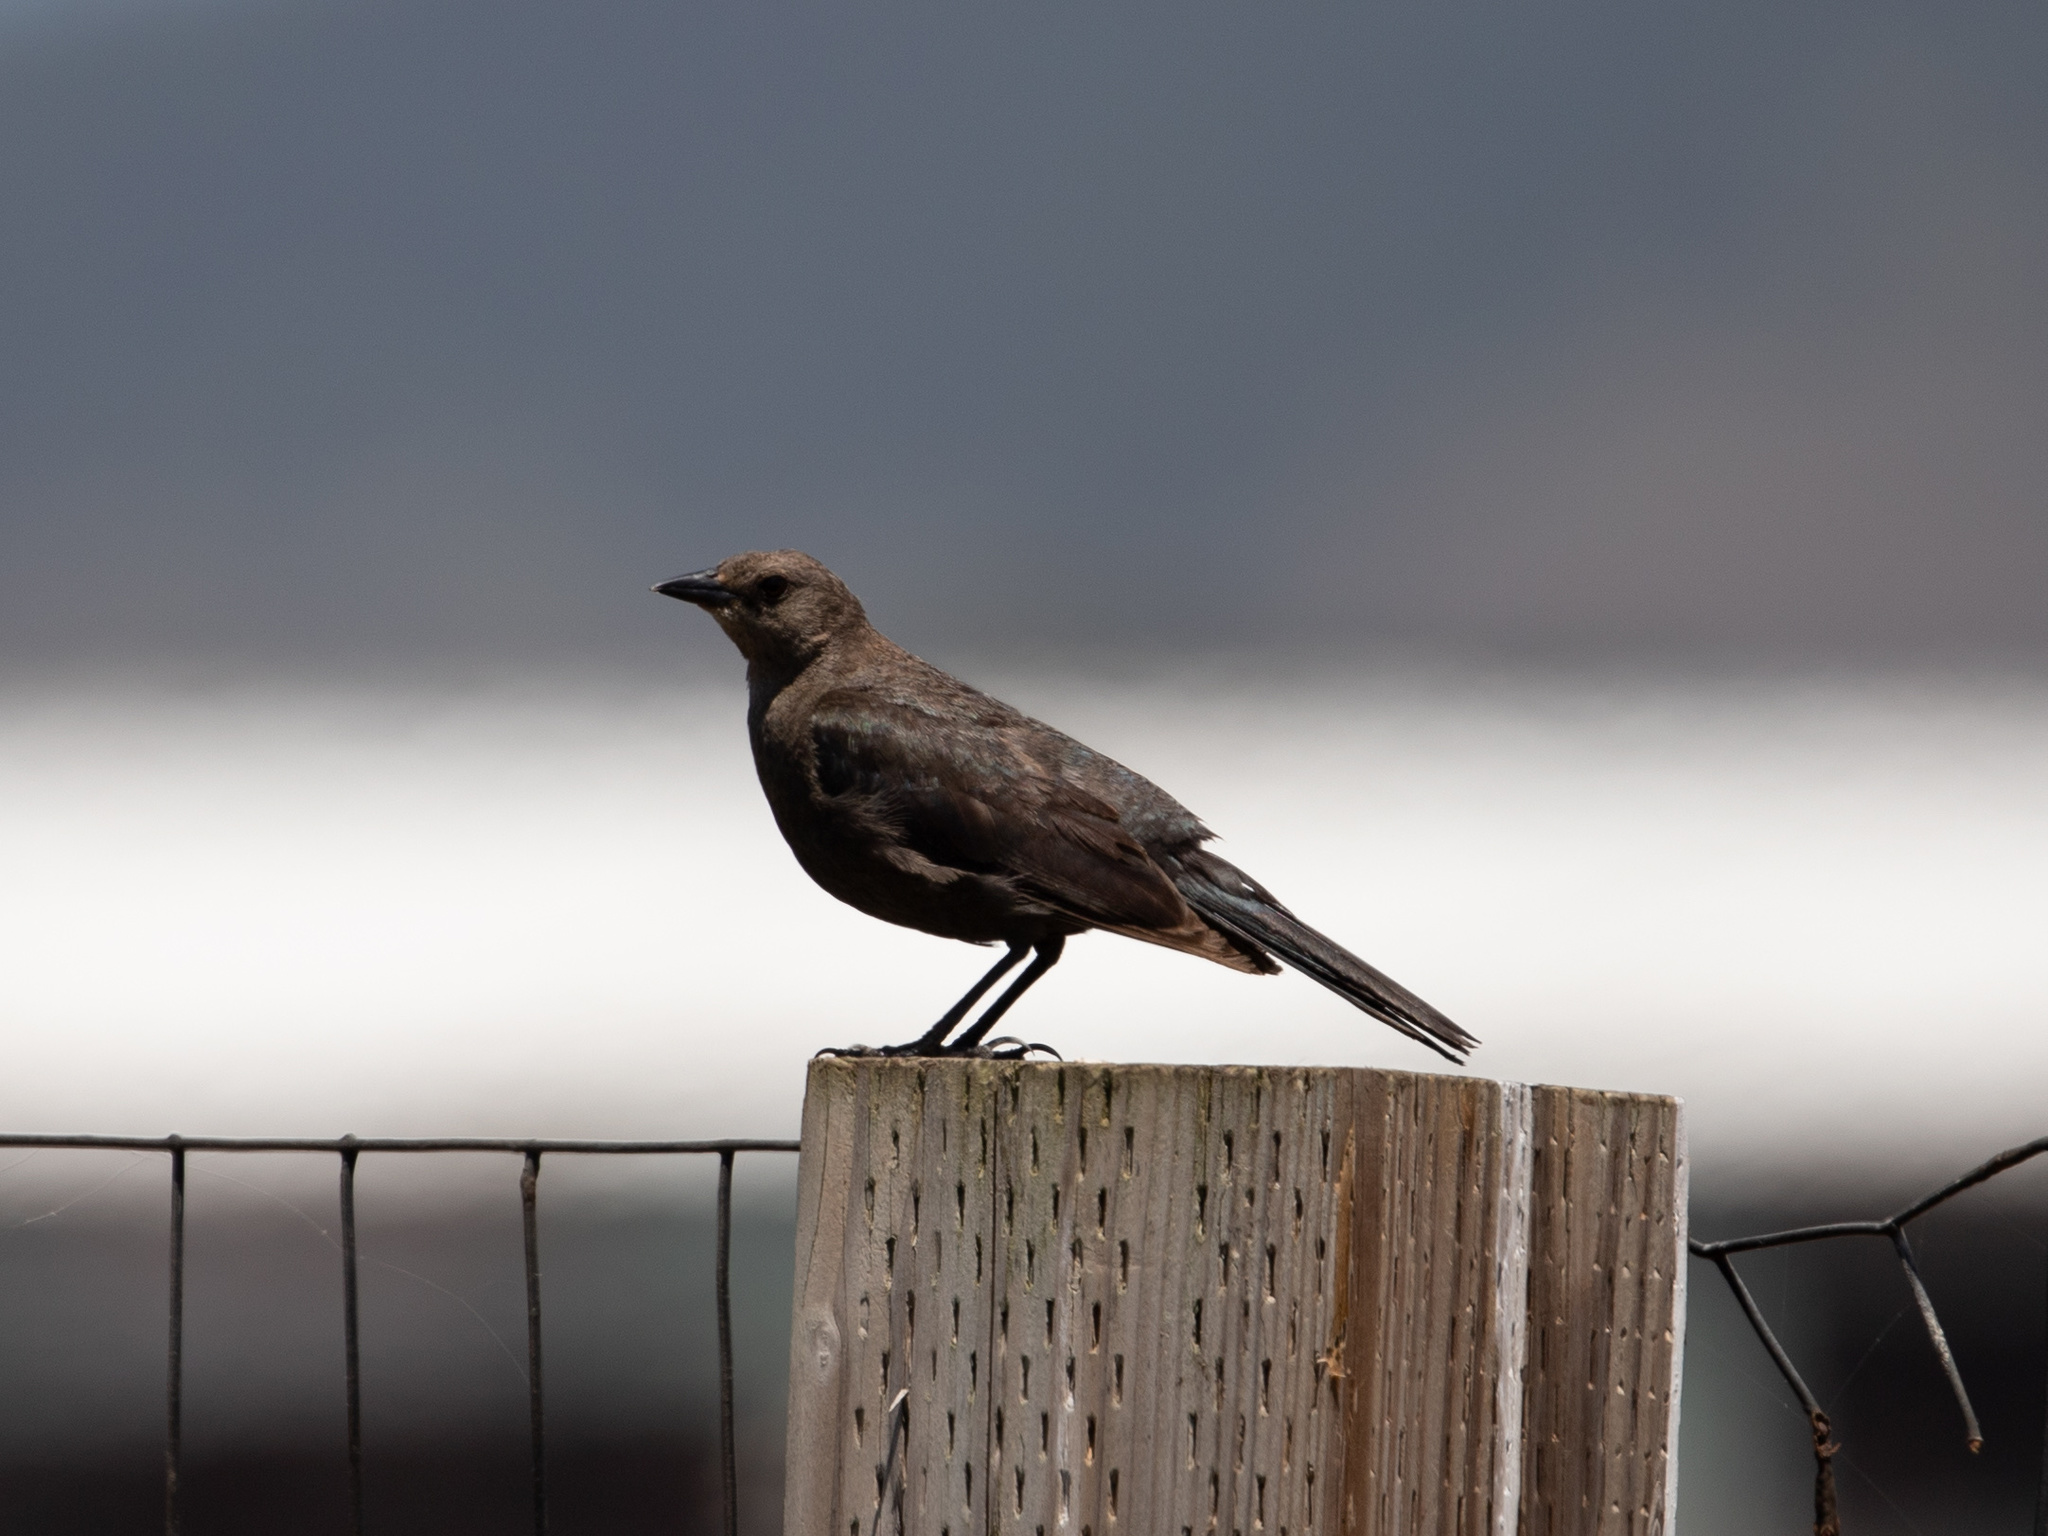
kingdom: Animalia
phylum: Chordata
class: Aves
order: Passeriformes
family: Icteridae
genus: Euphagus
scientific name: Euphagus cyanocephalus
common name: Brewer's blackbird
